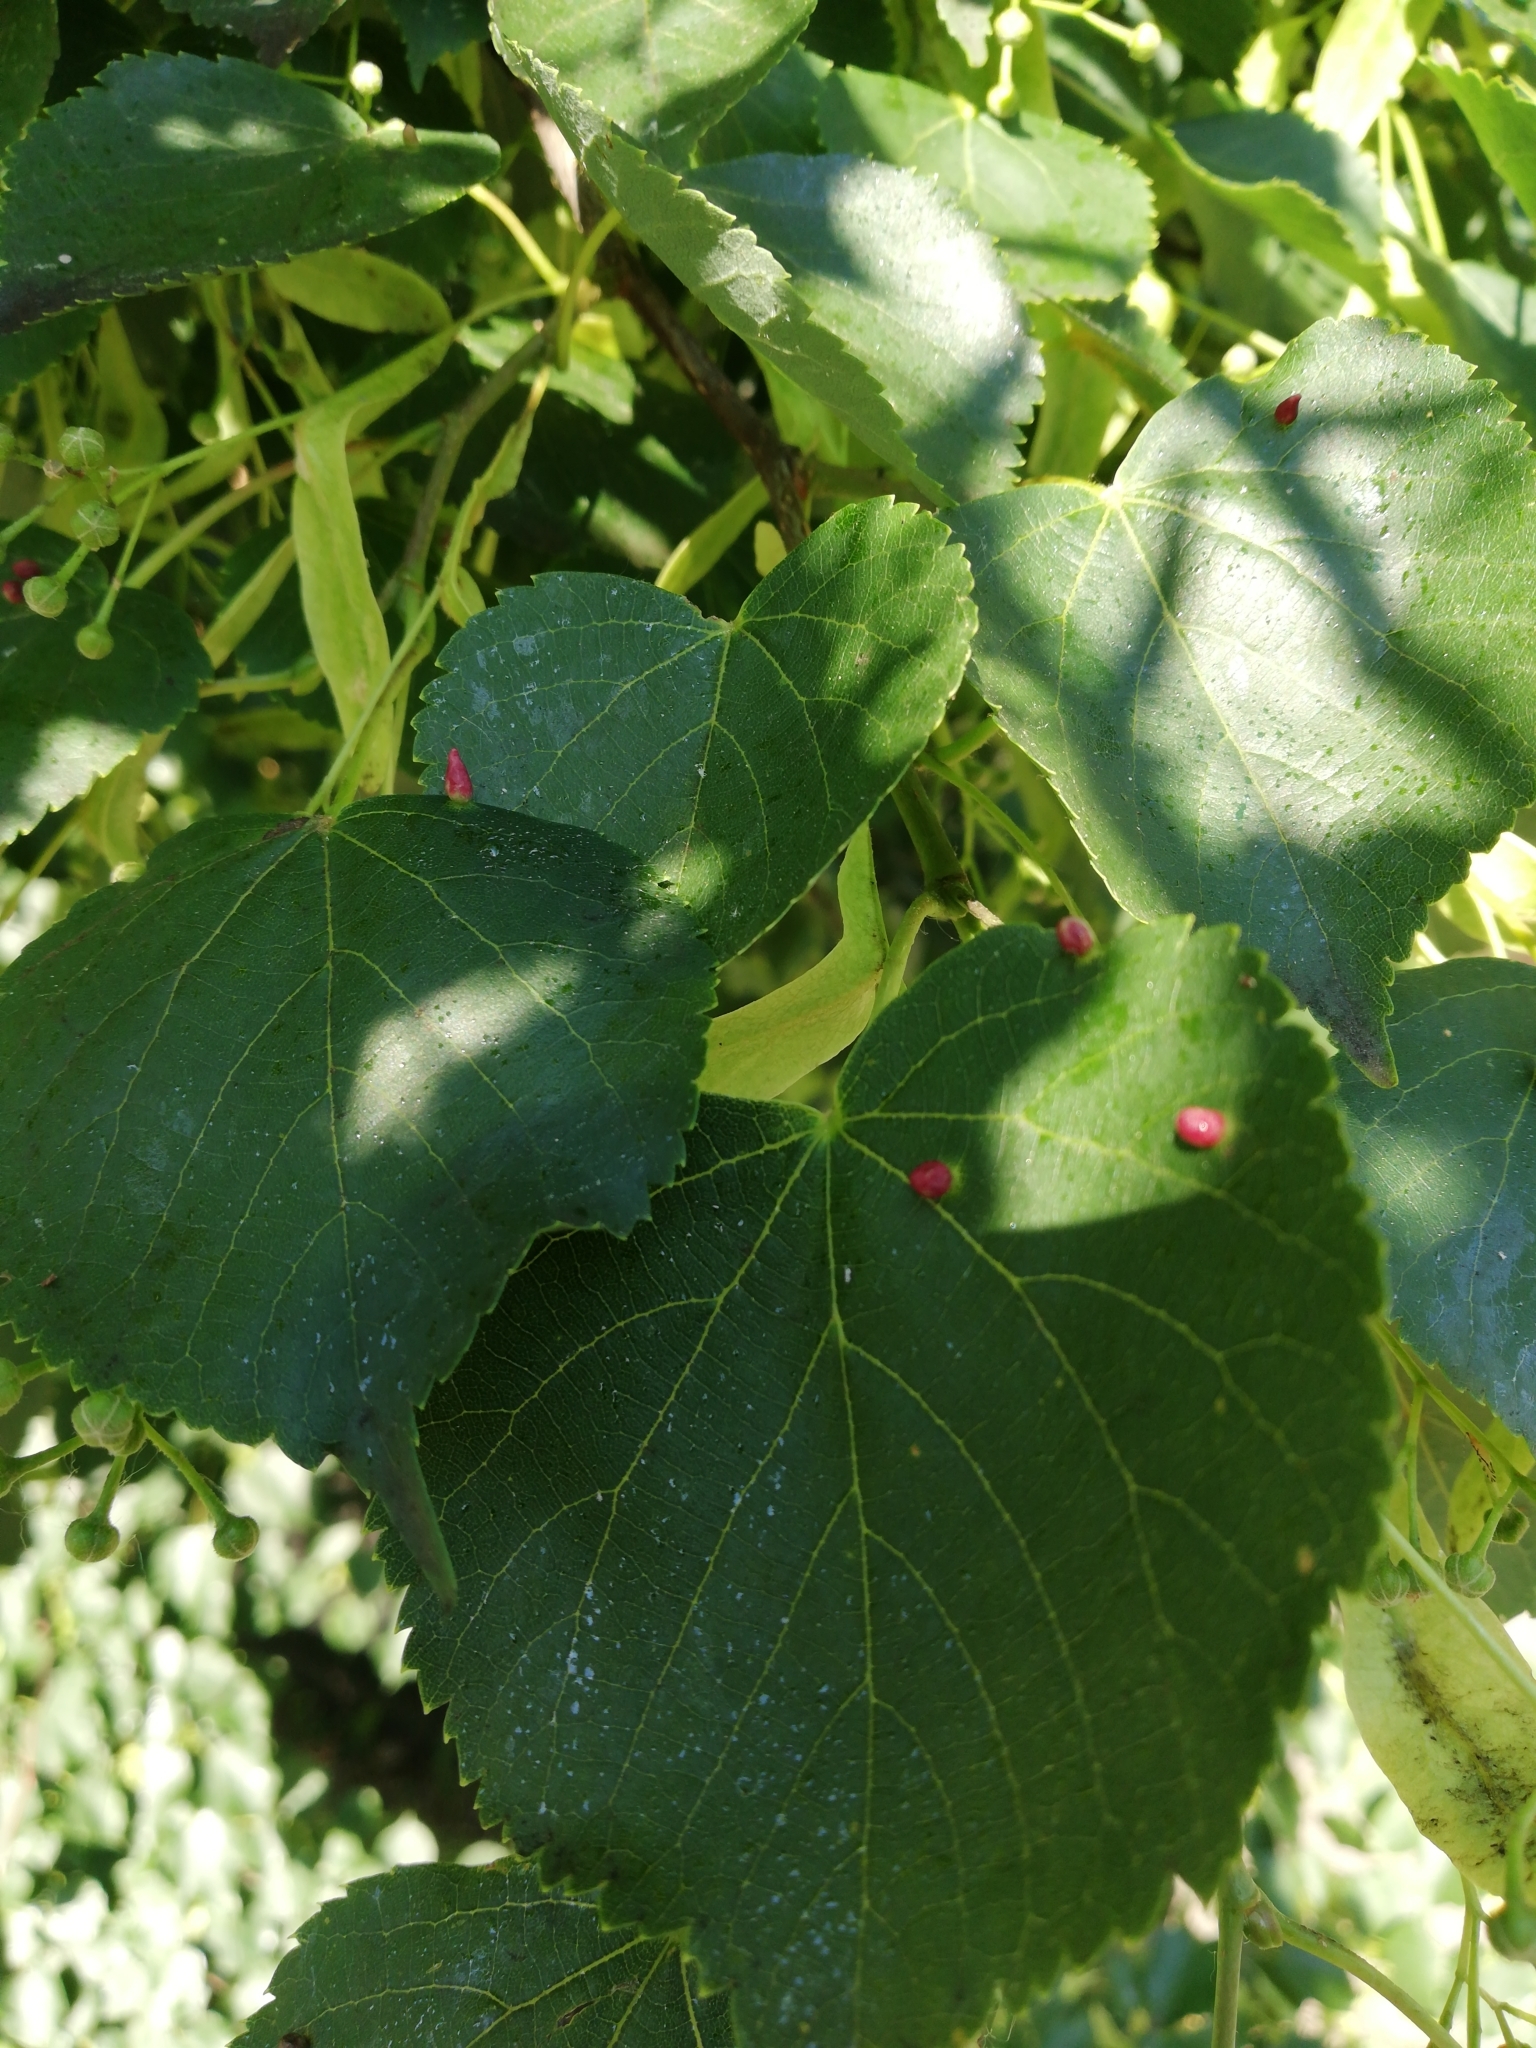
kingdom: Animalia
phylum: Arthropoda
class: Arachnida
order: Trombidiformes
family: Eriophyidae
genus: Eriophyes
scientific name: Eriophyes tiliae
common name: Red nail gall mite
